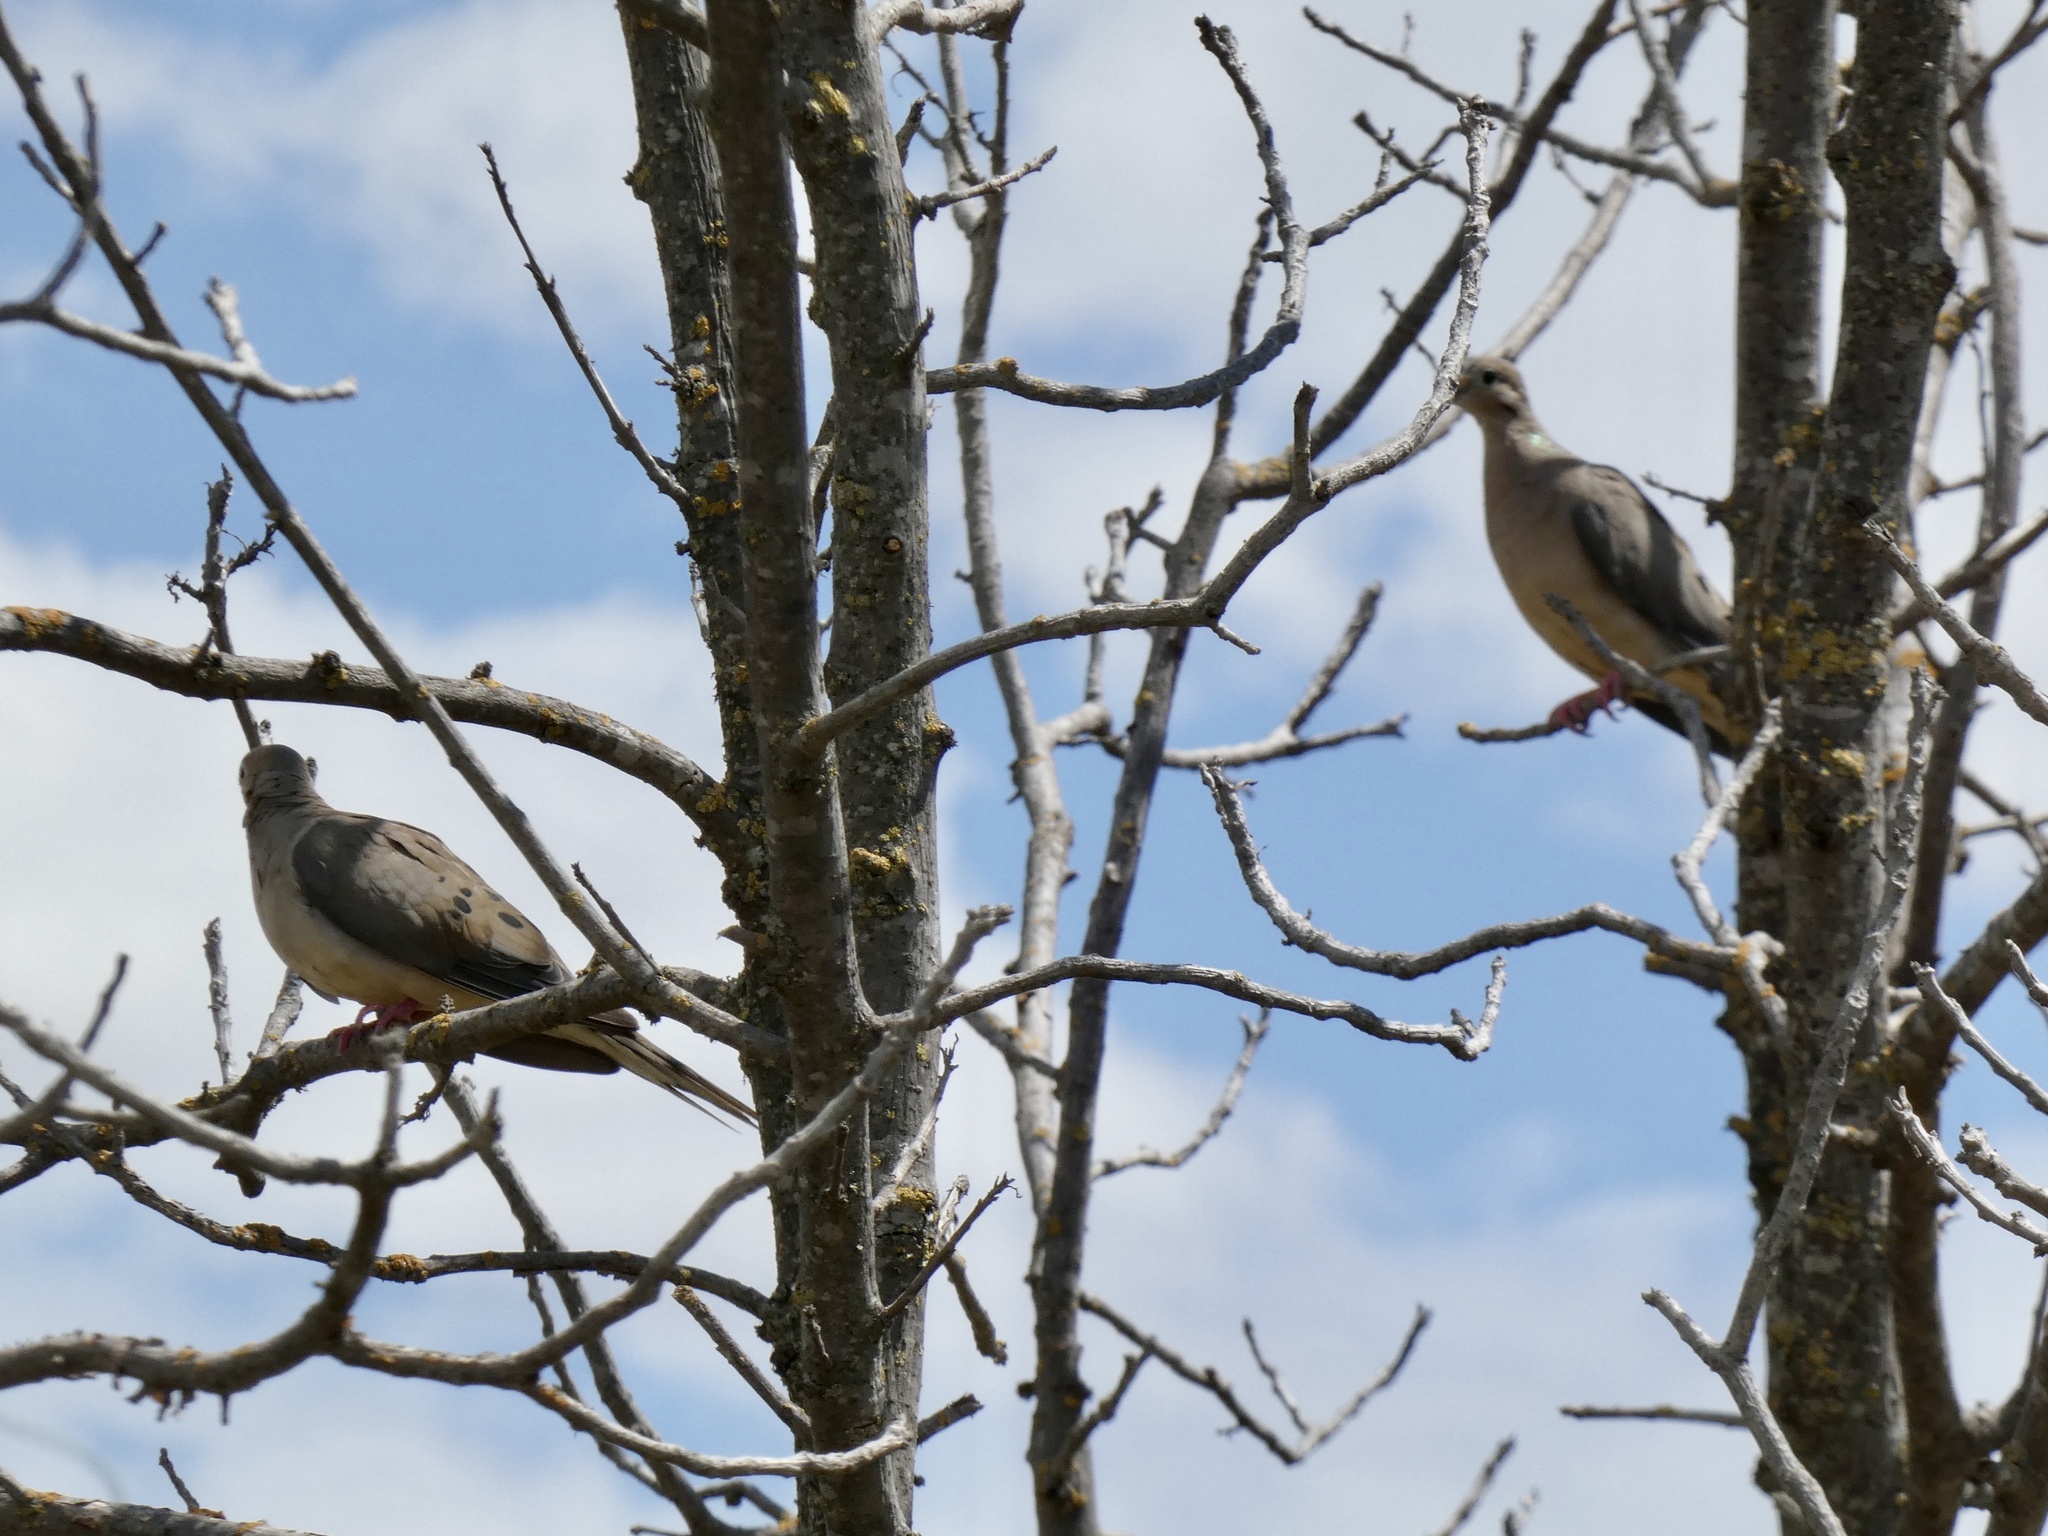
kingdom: Animalia
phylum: Chordata
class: Aves
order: Columbiformes
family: Columbidae
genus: Zenaida
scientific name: Zenaida macroura
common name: Mourning dove
